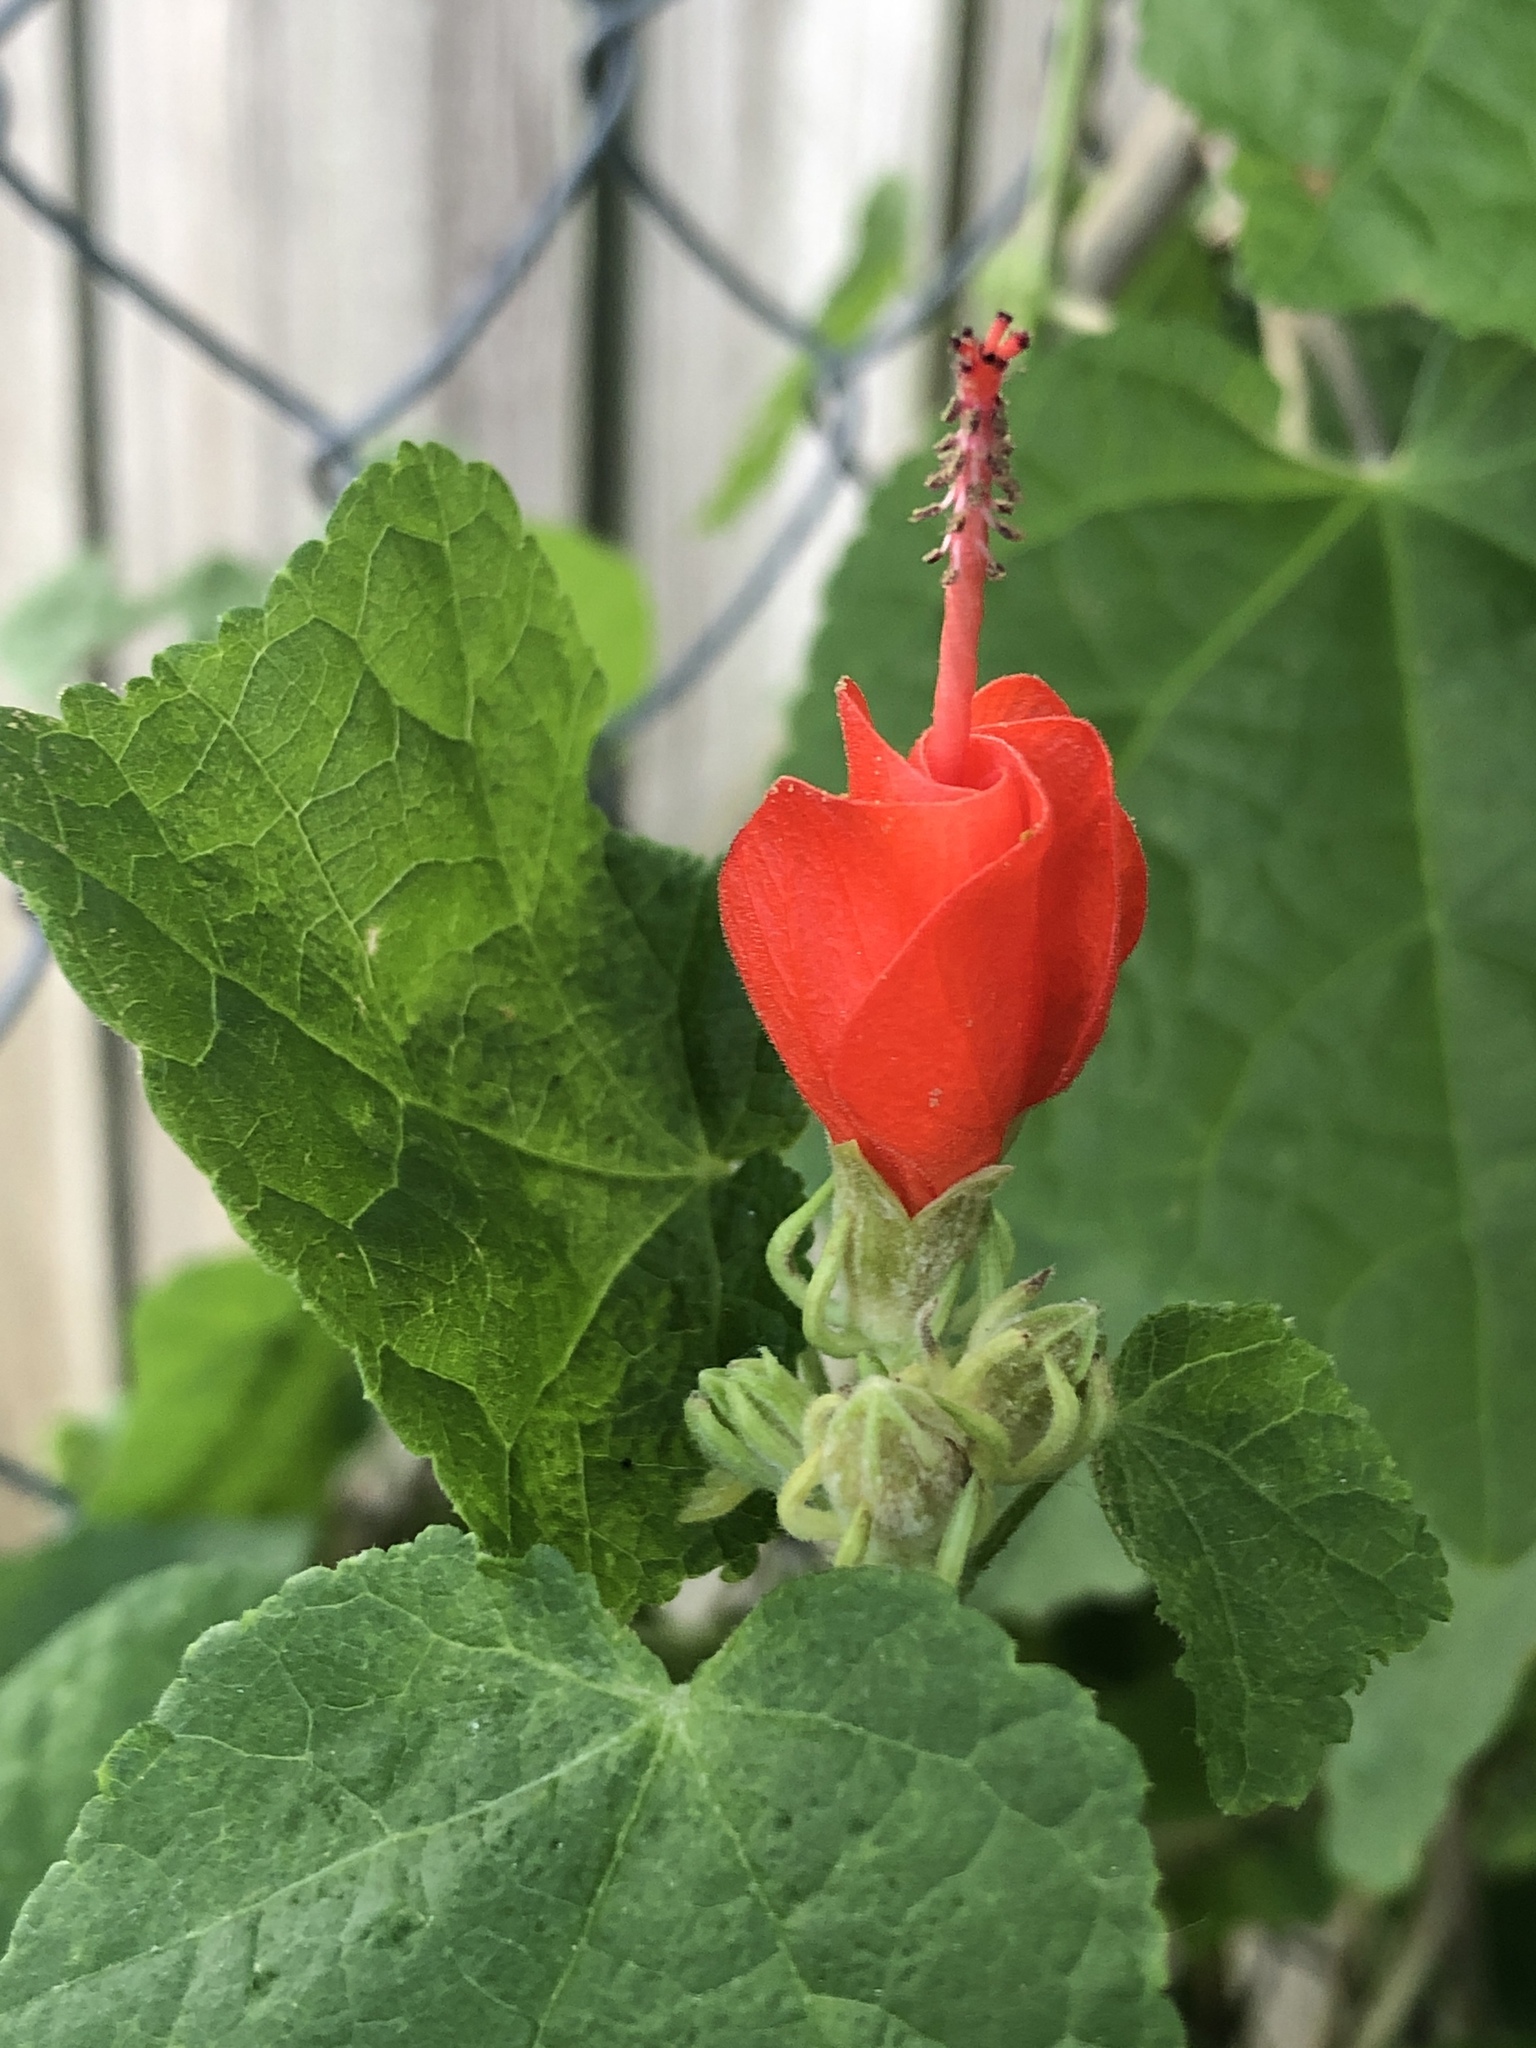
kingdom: Plantae
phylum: Tracheophyta
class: Magnoliopsida
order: Malvales
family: Malvaceae
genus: Malvaviscus
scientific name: Malvaviscus arboreus
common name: Wax mallow
